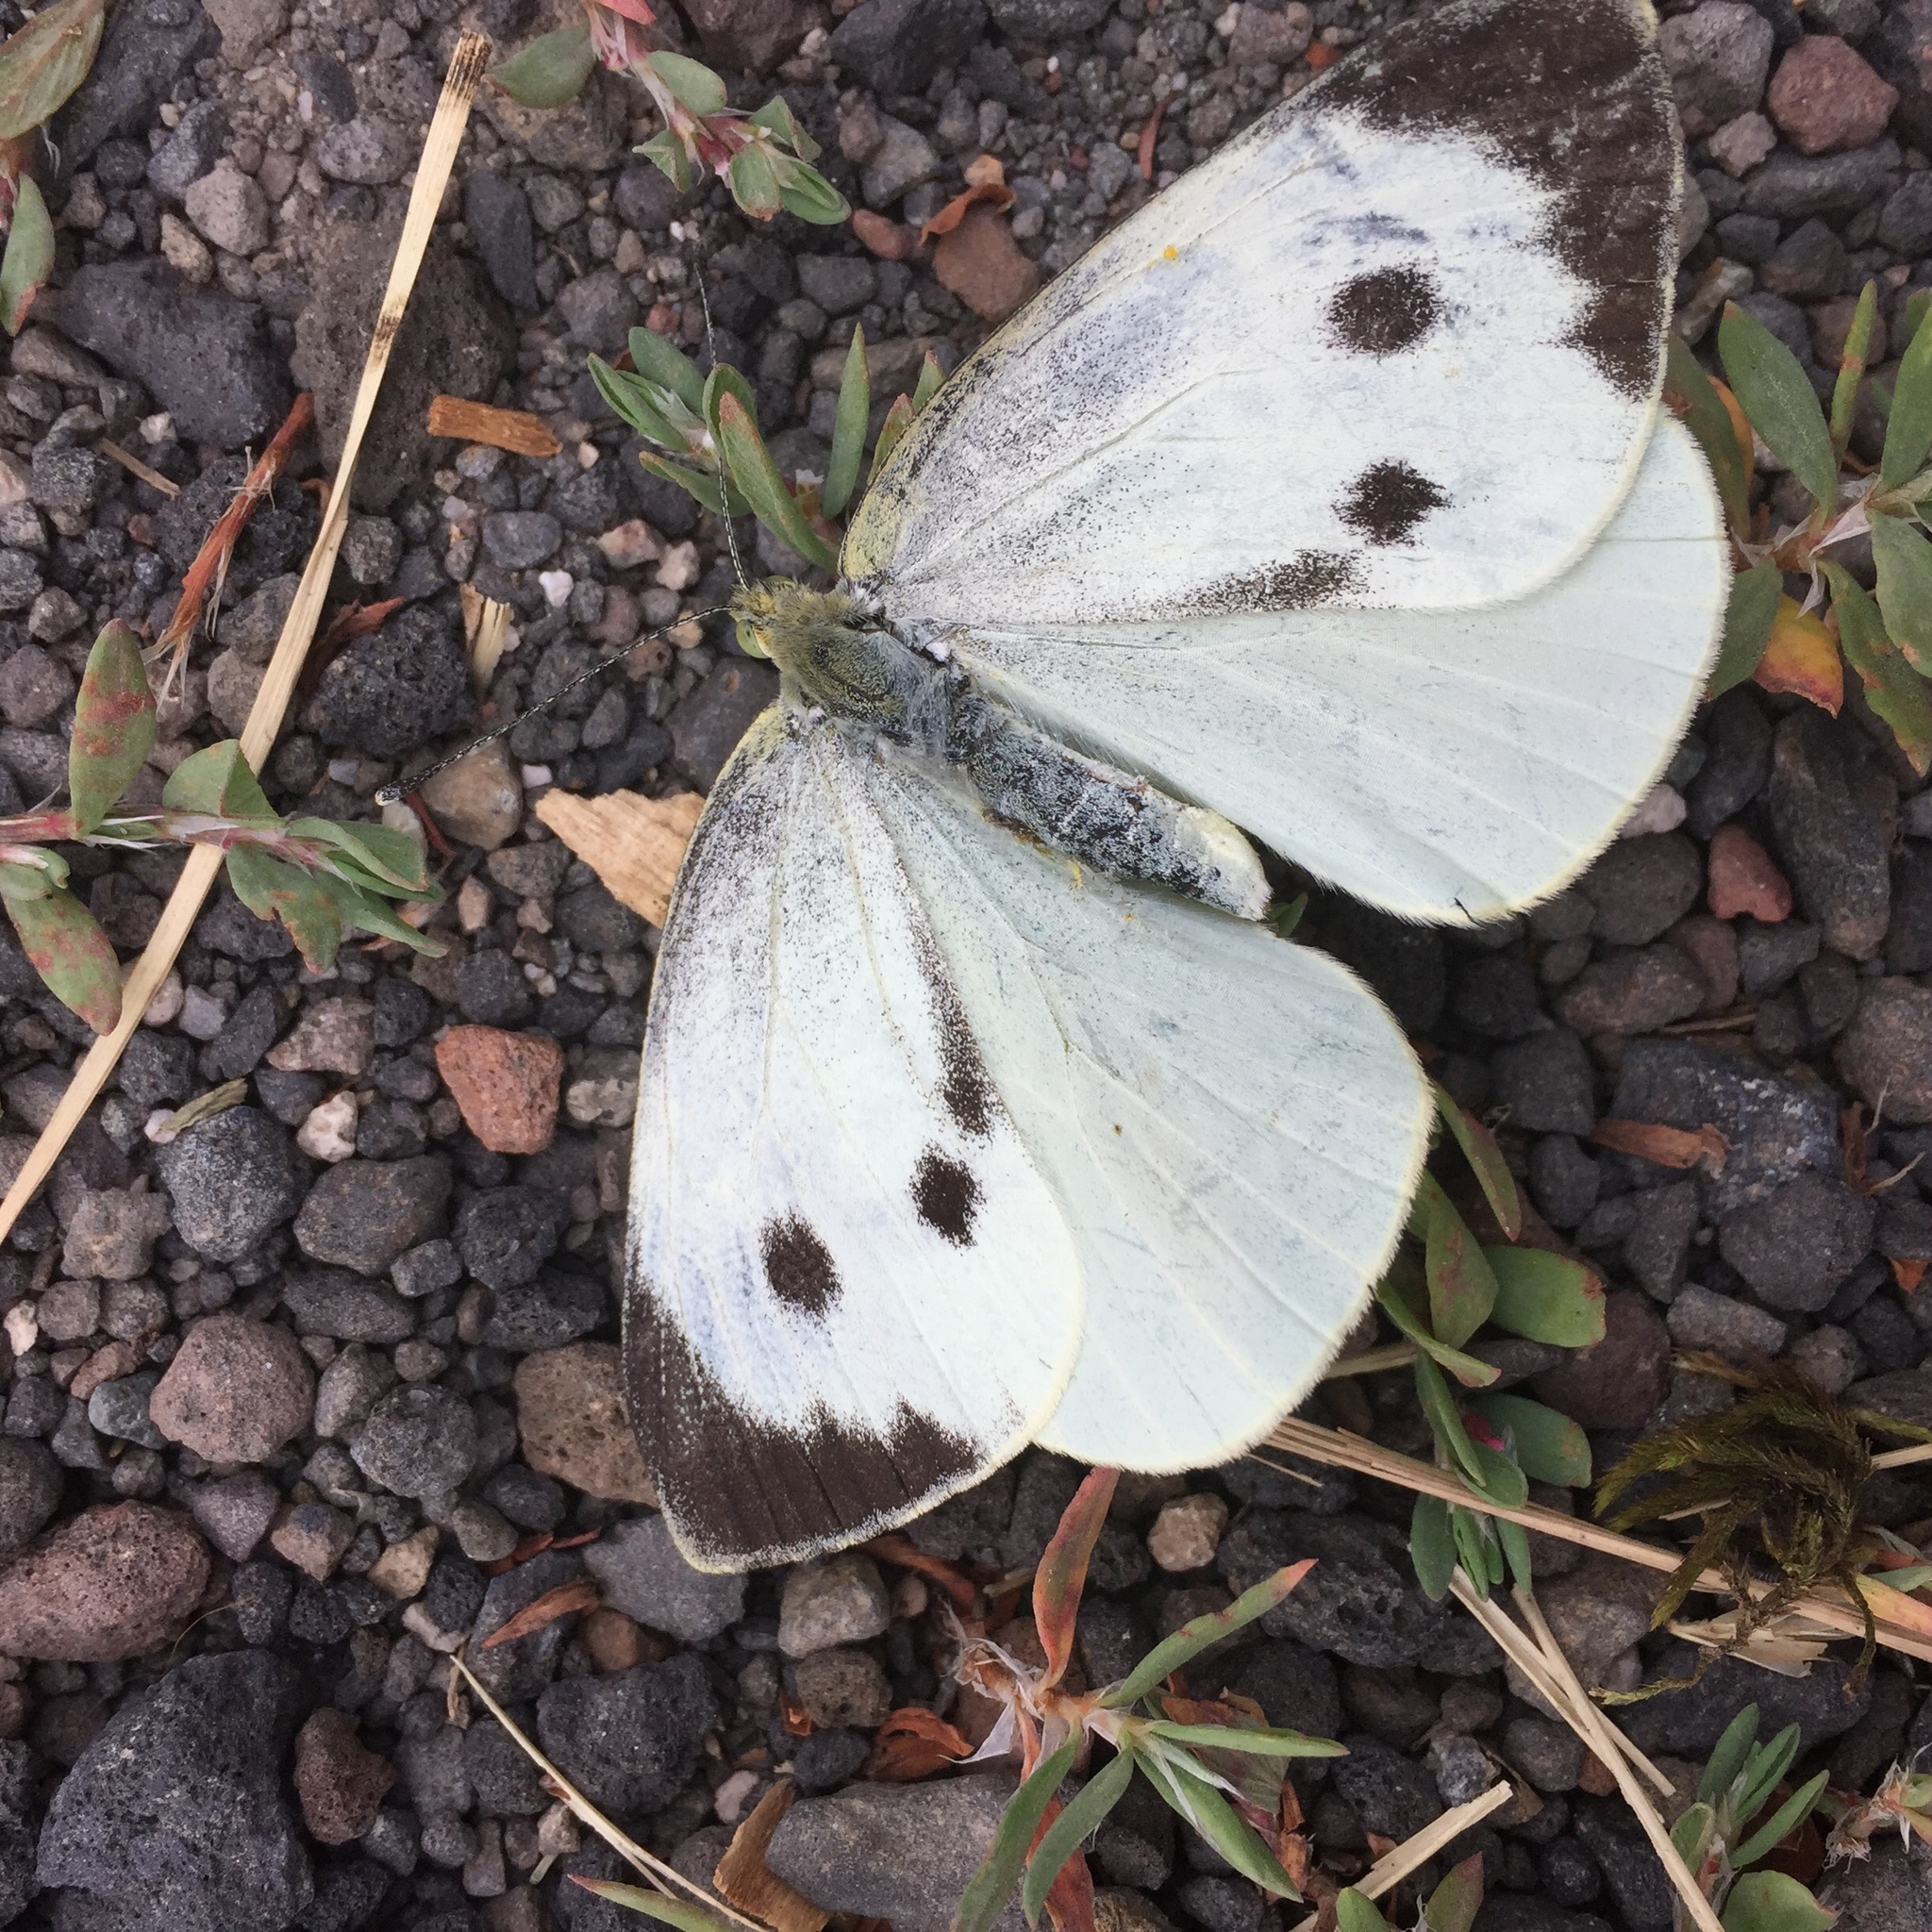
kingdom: Animalia
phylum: Arthropoda
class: Insecta
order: Lepidoptera
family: Pieridae
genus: Pieris
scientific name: Pieris brassicae
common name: Large white
